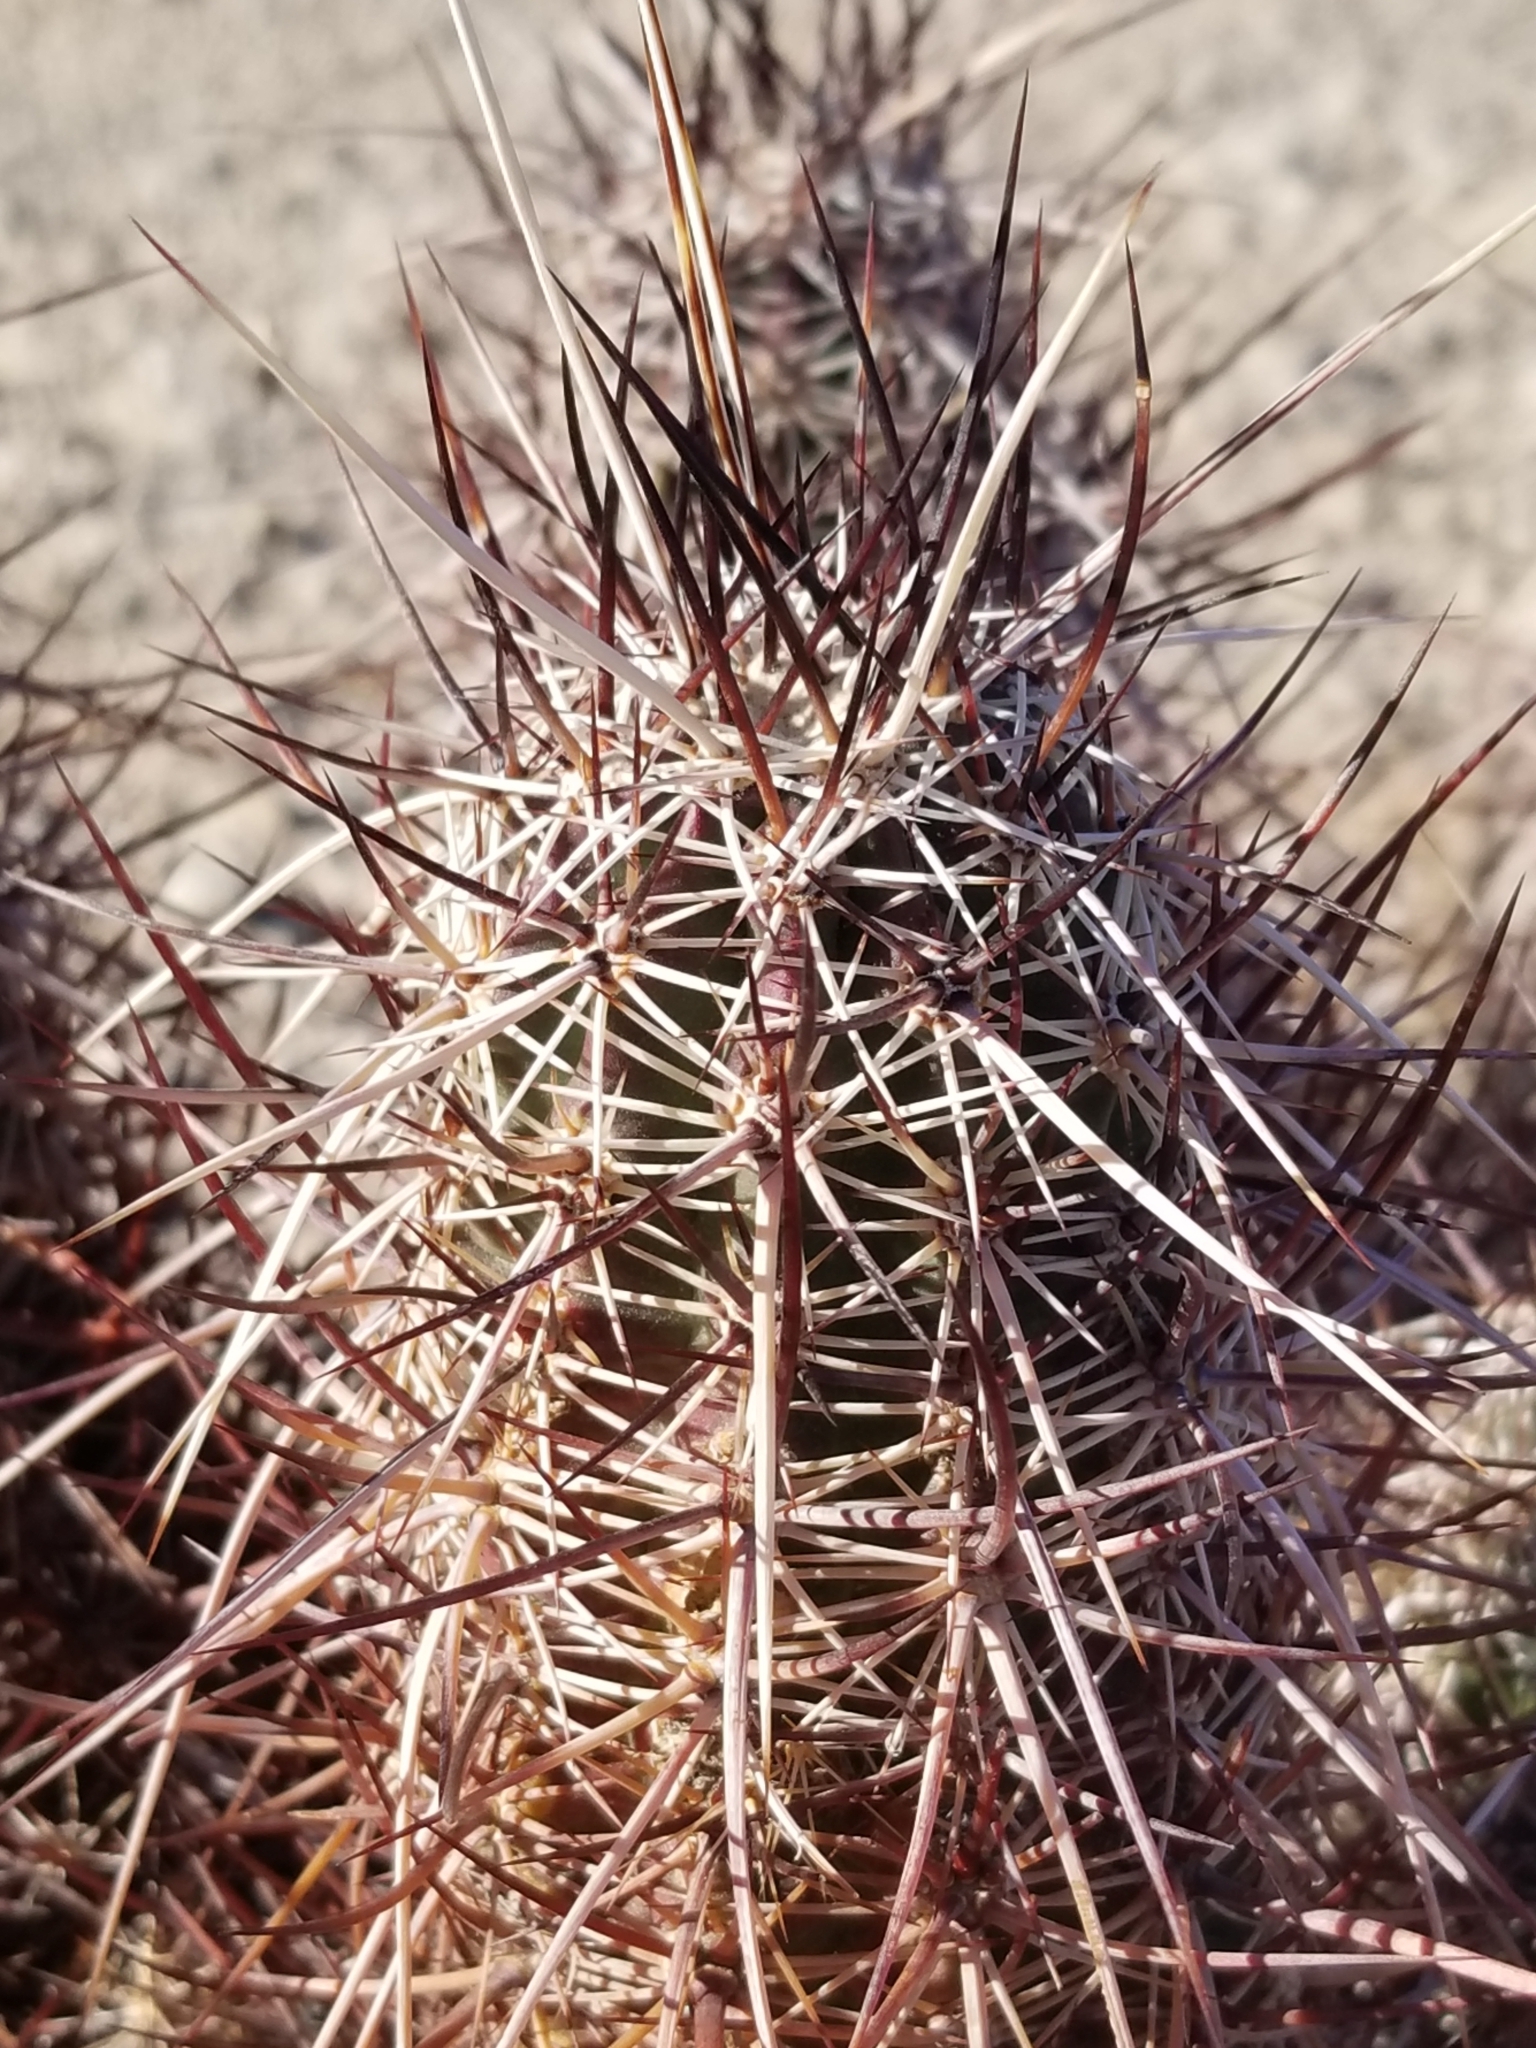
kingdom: Plantae
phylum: Tracheophyta
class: Magnoliopsida
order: Caryophyllales
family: Cactaceae
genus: Echinocereus
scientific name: Echinocereus engelmannii
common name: Engelmann's hedgehog cactus
